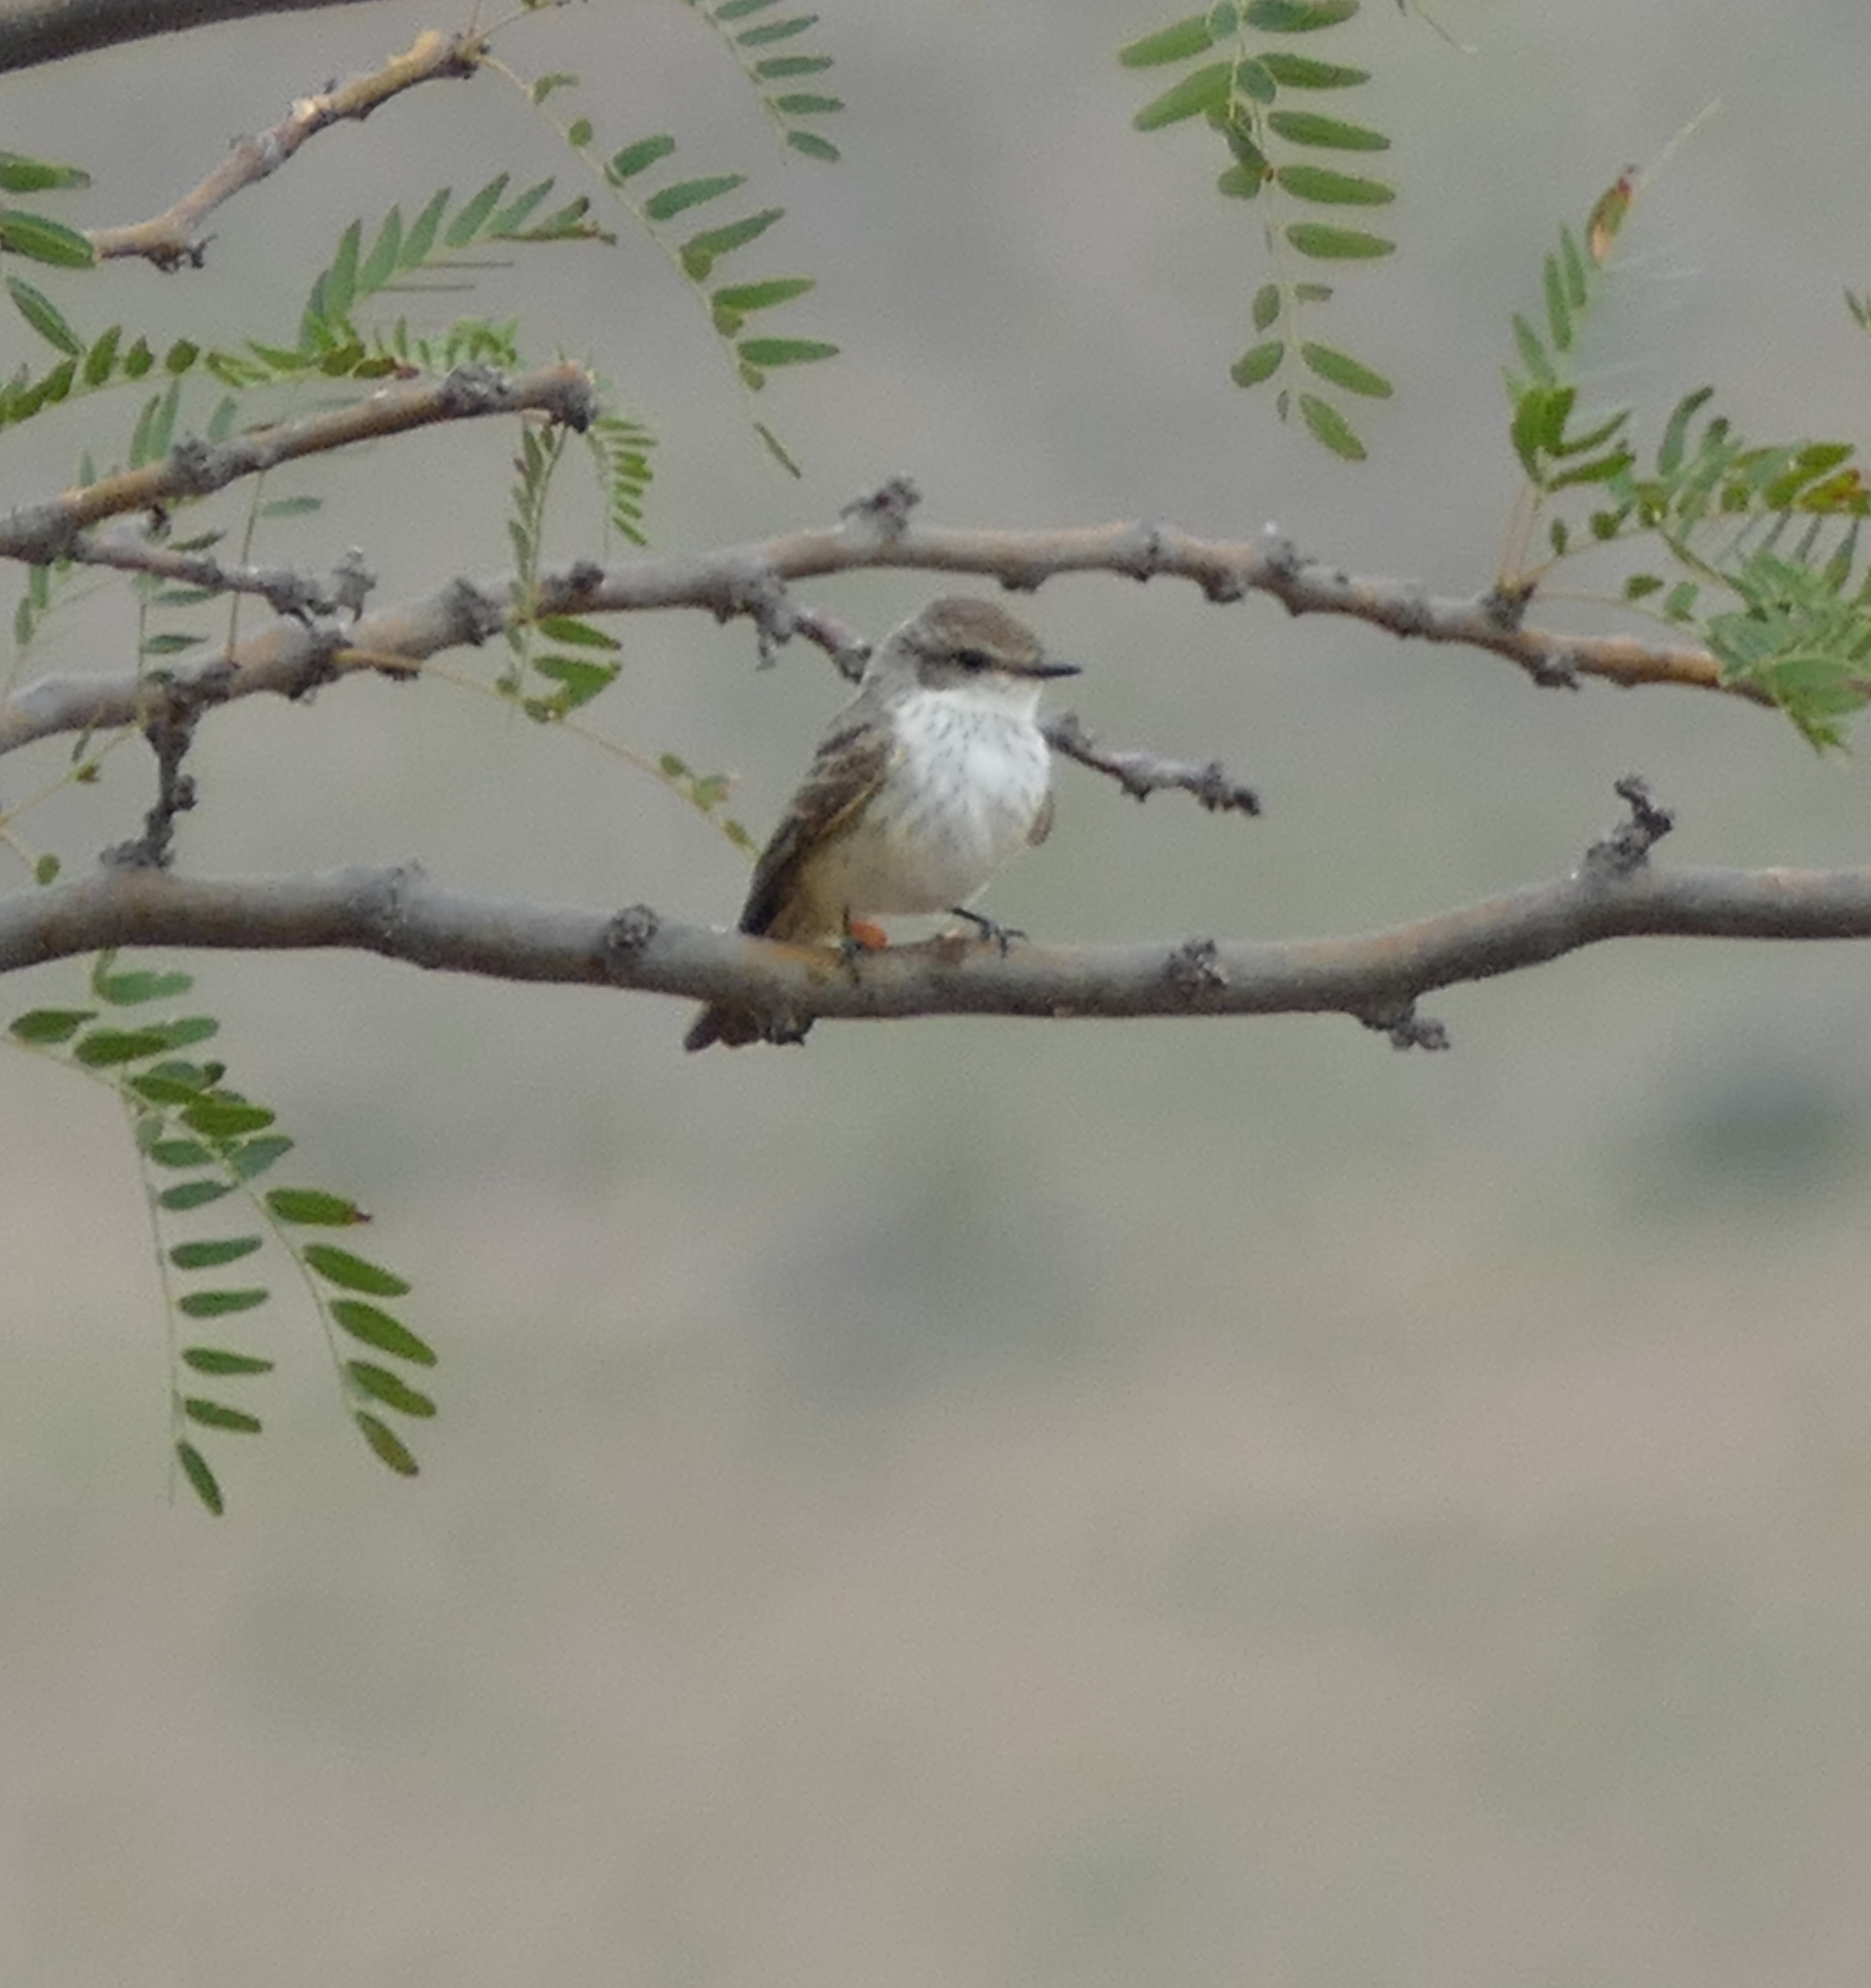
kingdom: Animalia
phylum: Chordata
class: Aves
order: Passeriformes
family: Tyrannidae
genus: Pyrocephalus
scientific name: Pyrocephalus rubinus
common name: Vermilion flycatcher
